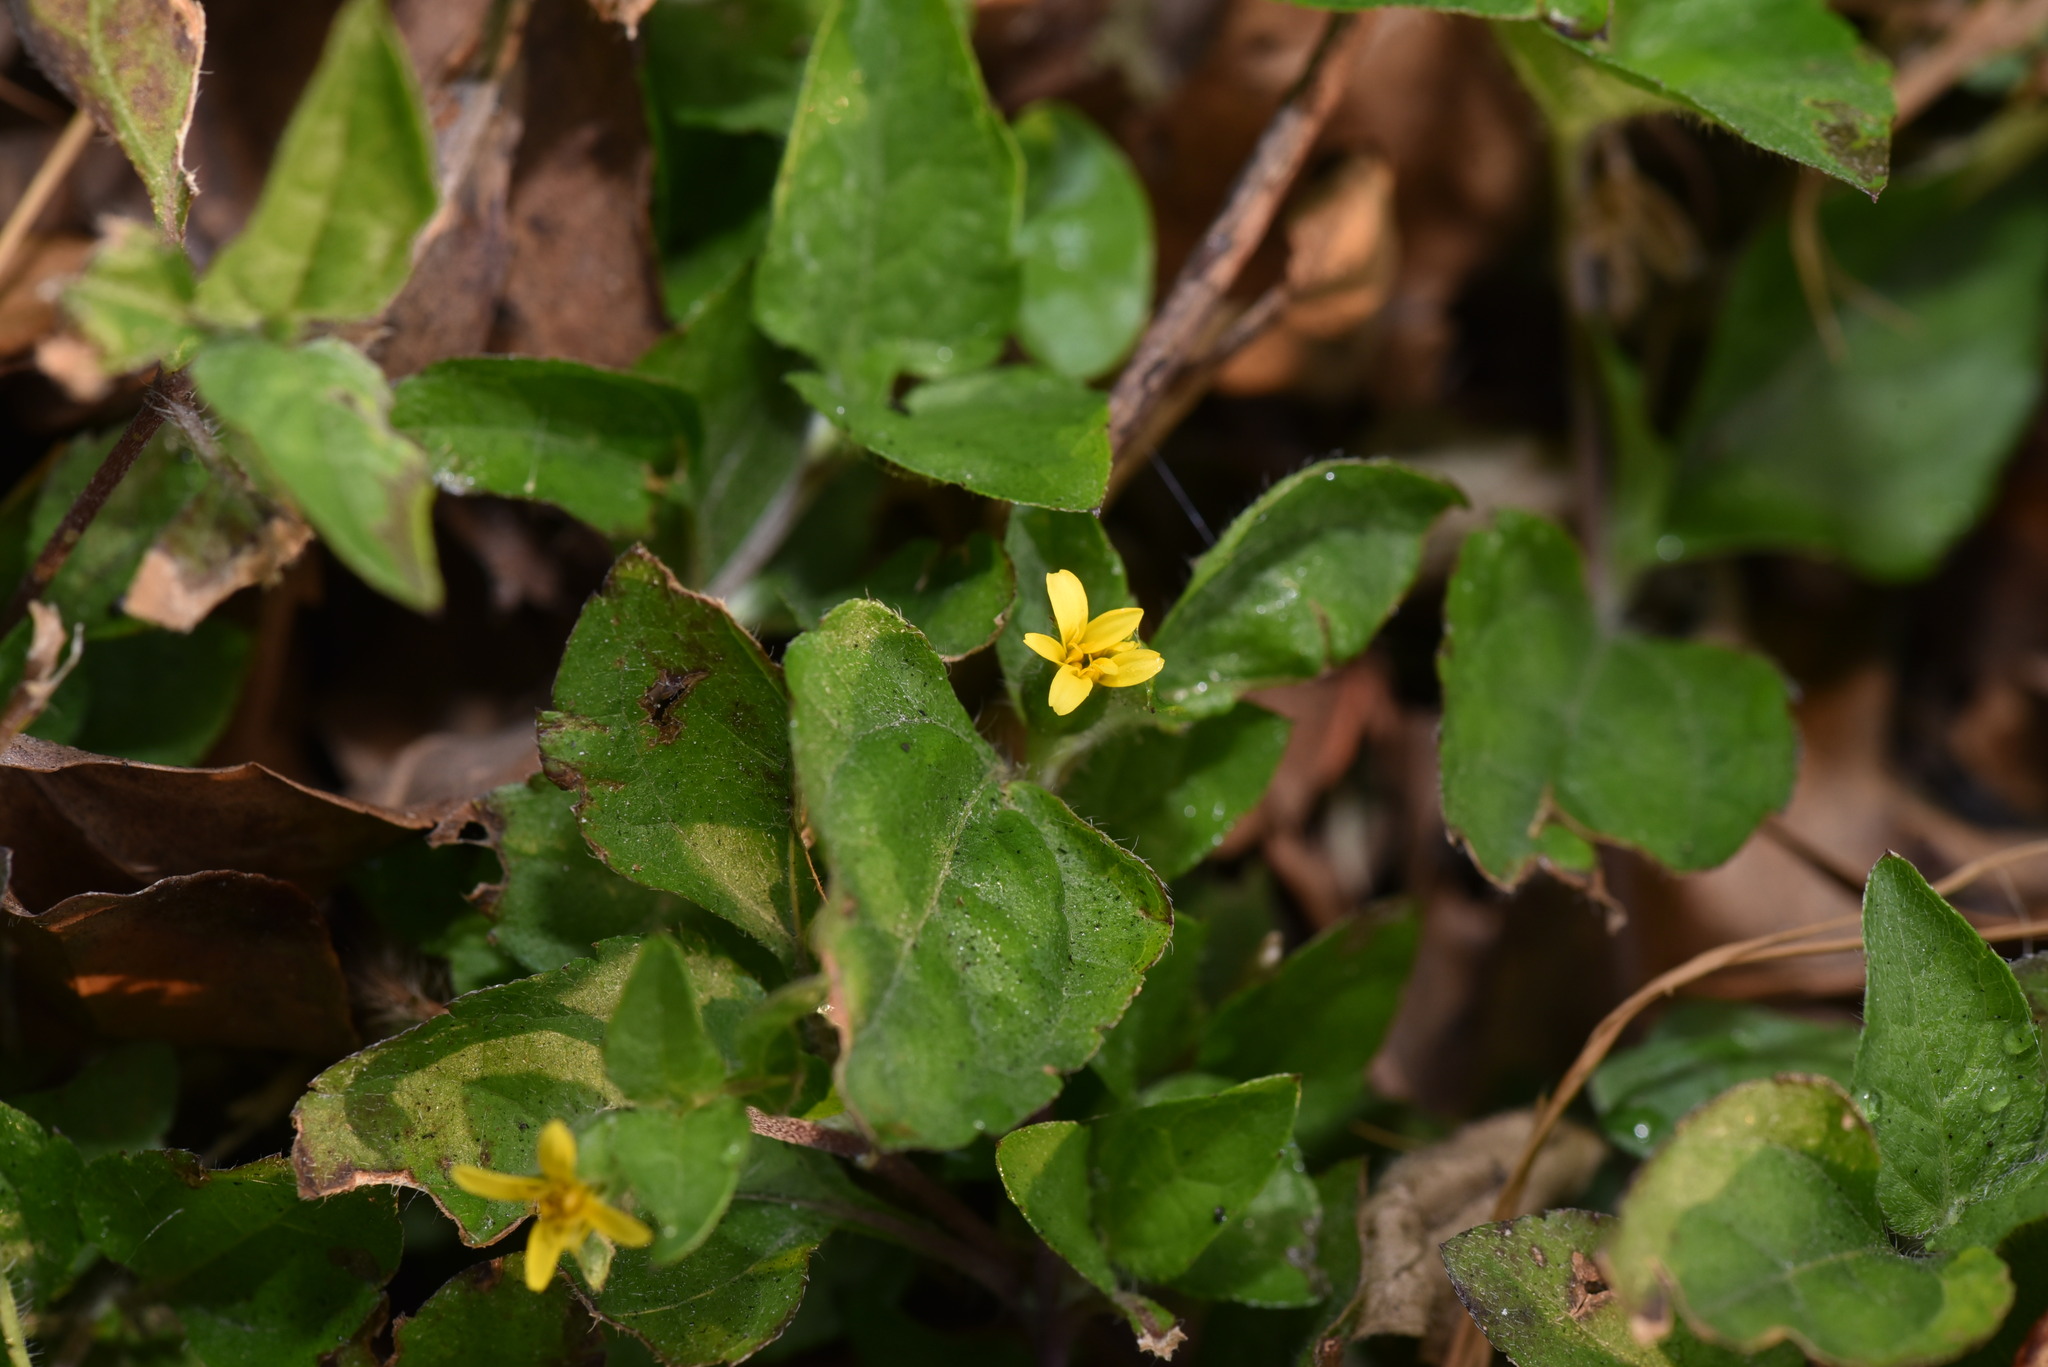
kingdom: Plantae
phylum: Tracheophyta
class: Magnoliopsida
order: Asterales
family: Asteraceae
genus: Calyptocarpus
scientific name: Calyptocarpus vialis
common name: Straggler daisy
